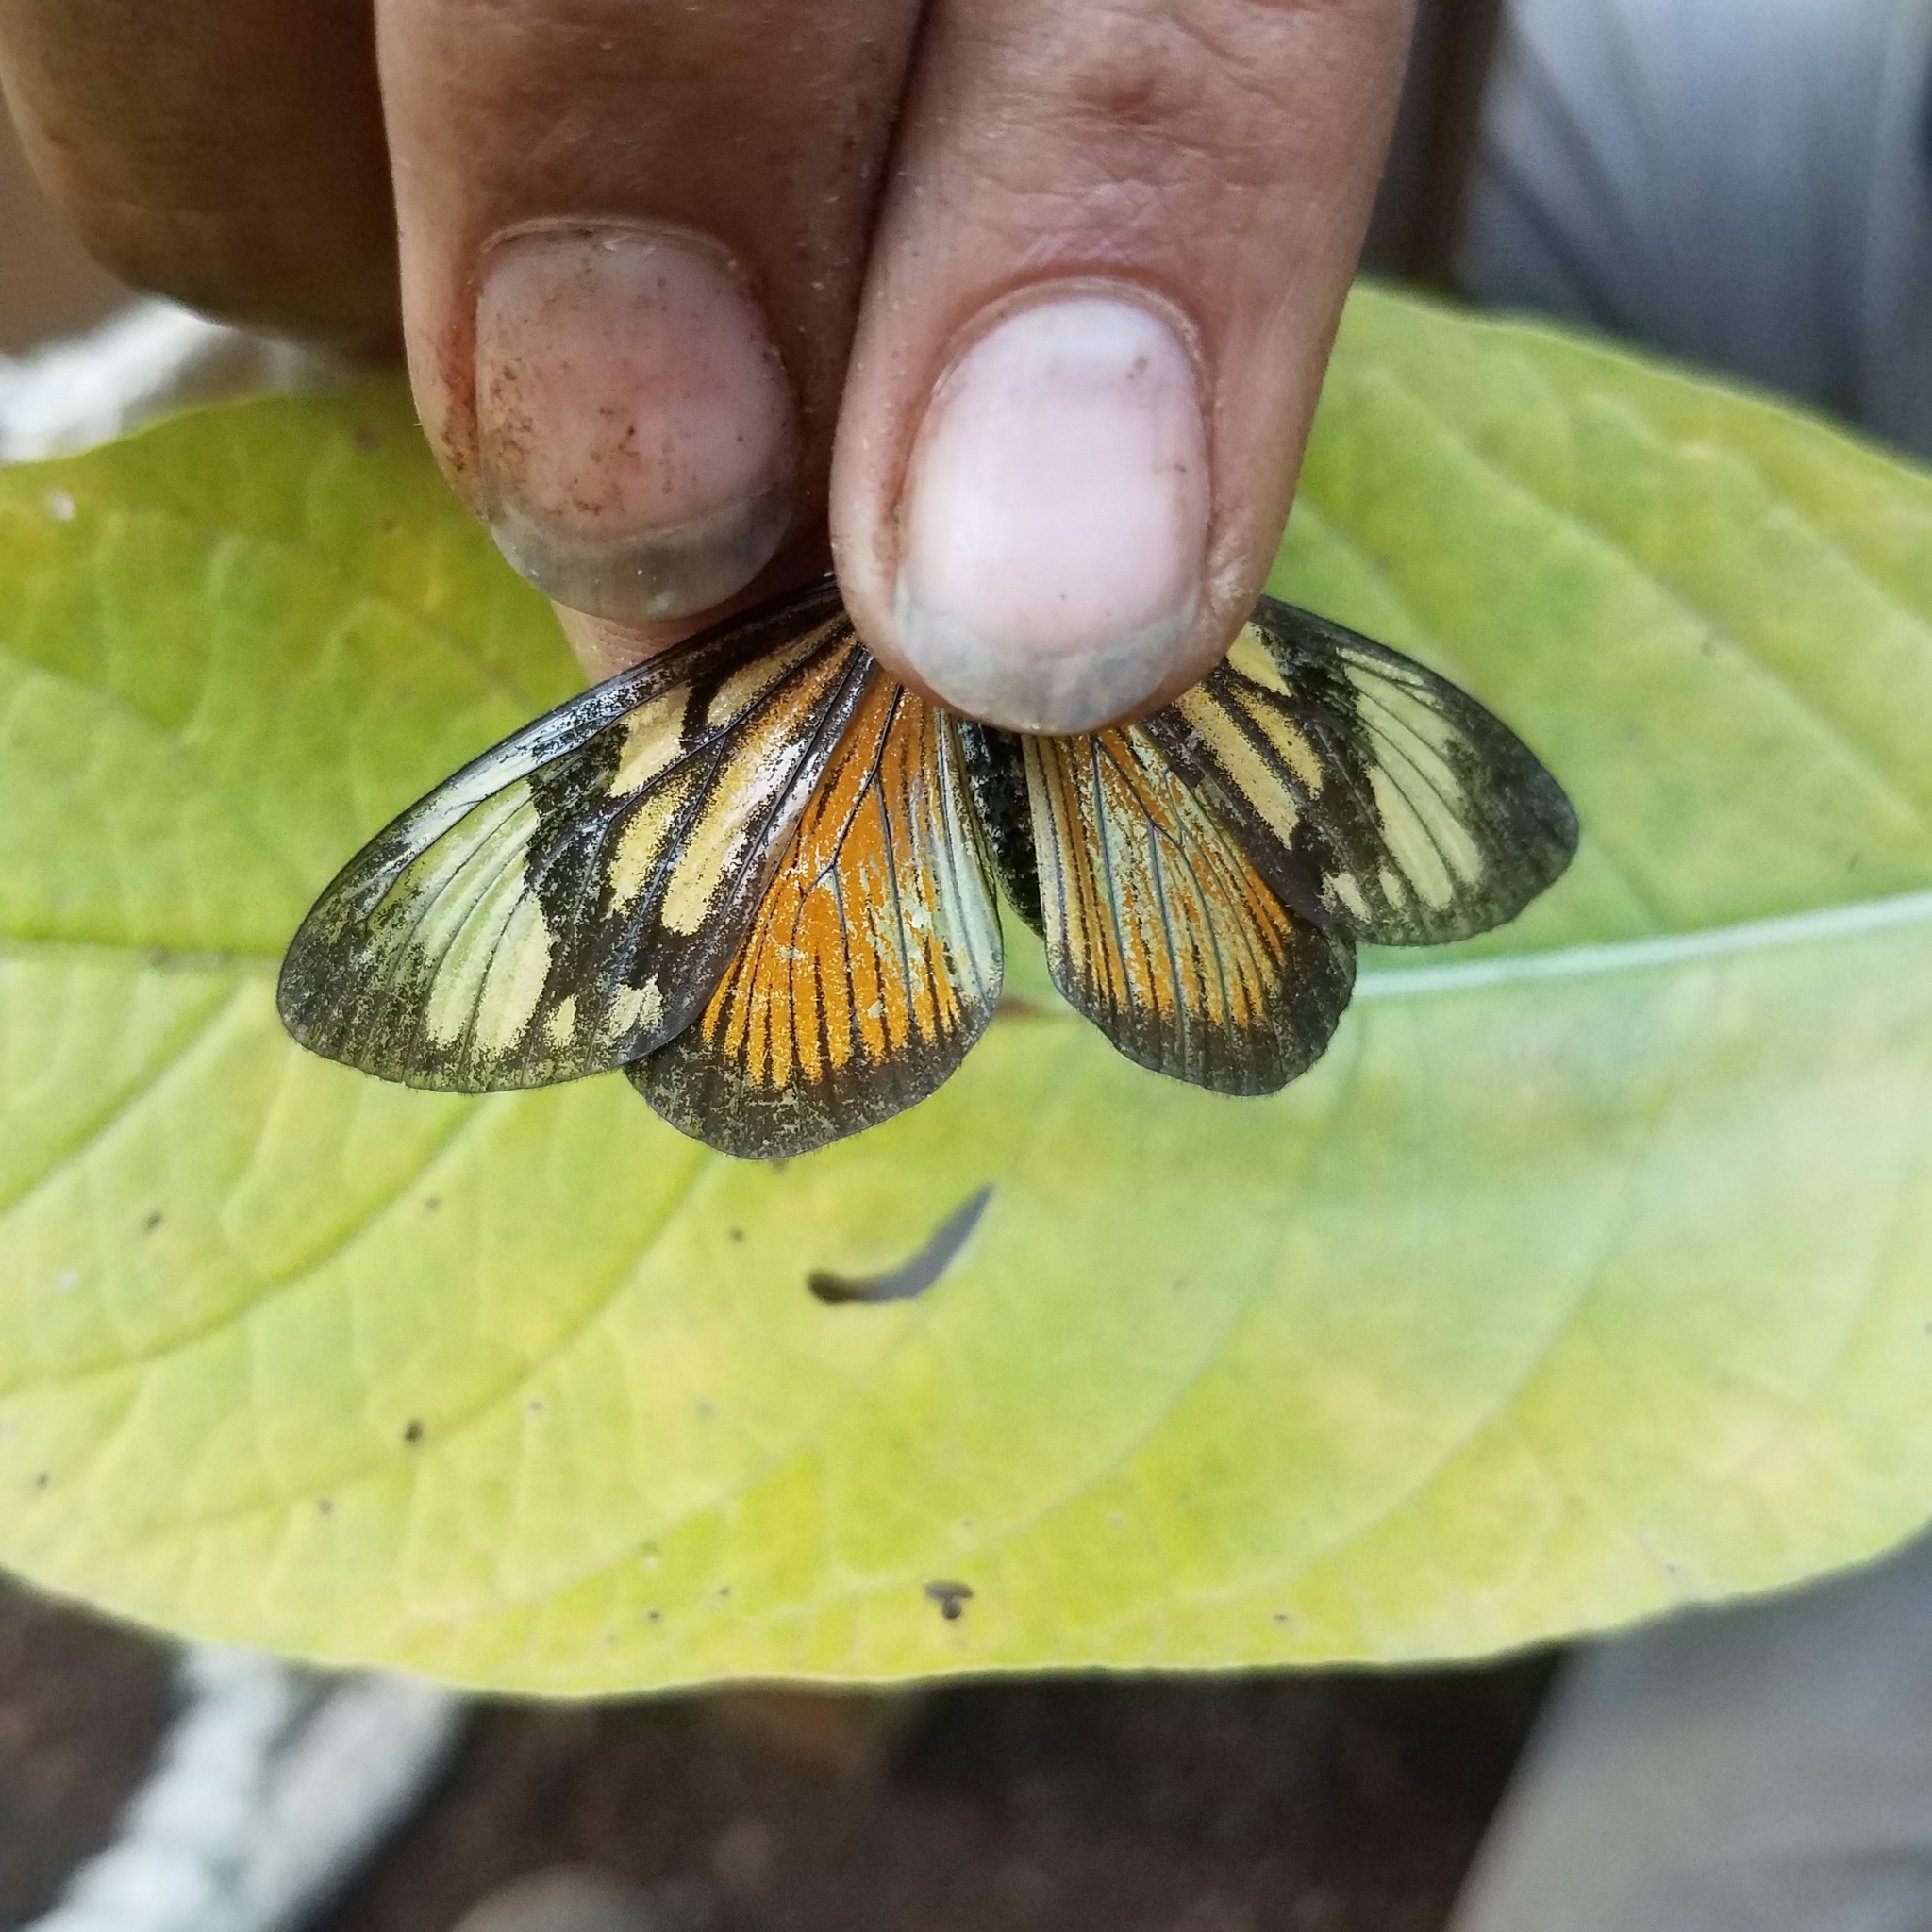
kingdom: Animalia
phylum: Arthropoda
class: Insecta
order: Lepidoptera
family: Nymphalidae
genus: Actinote
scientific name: Actinote anteas
